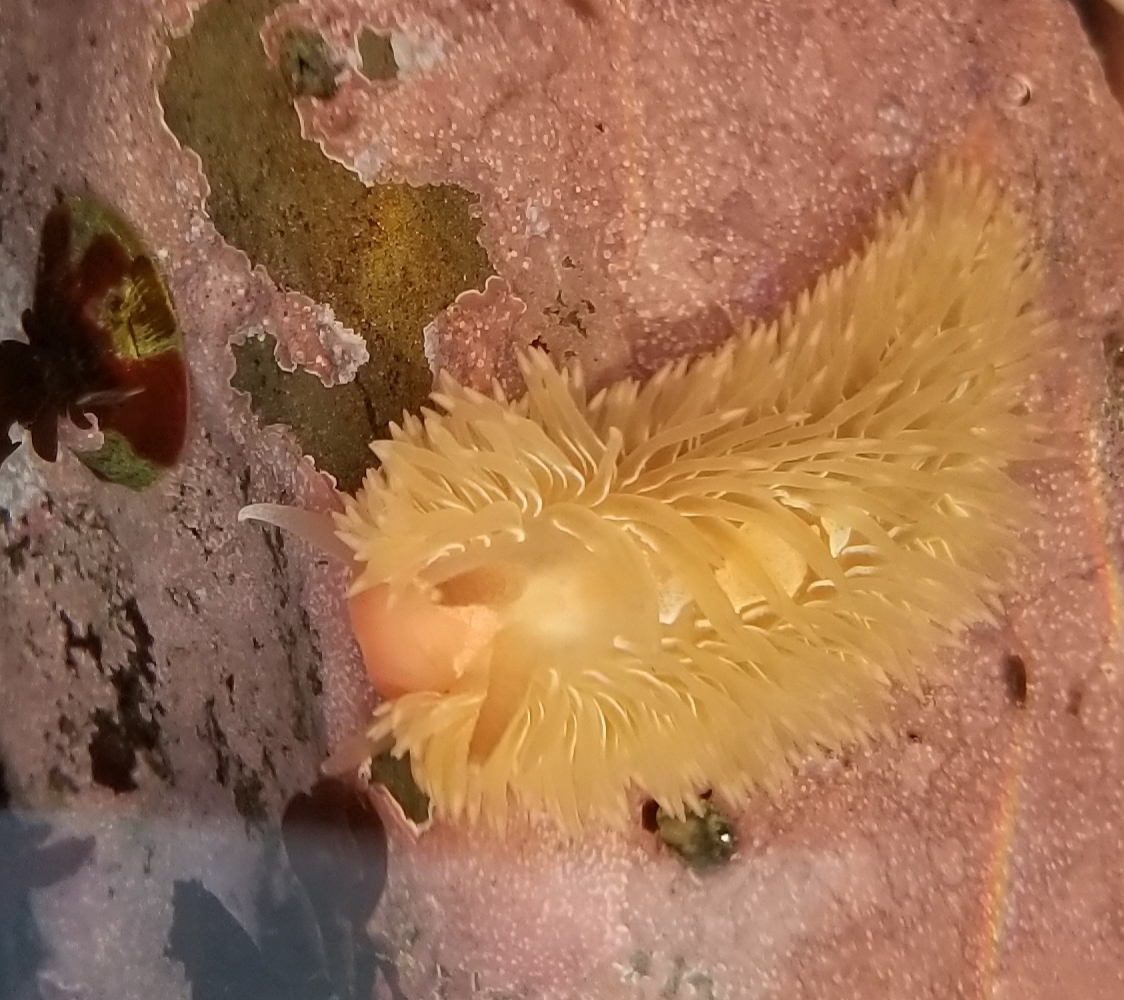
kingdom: Animalia
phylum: Mollusca
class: Gastropoda
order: Nudibranchia
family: Aeolidiidae
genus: Aeolidia
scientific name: Aeolidia loui
